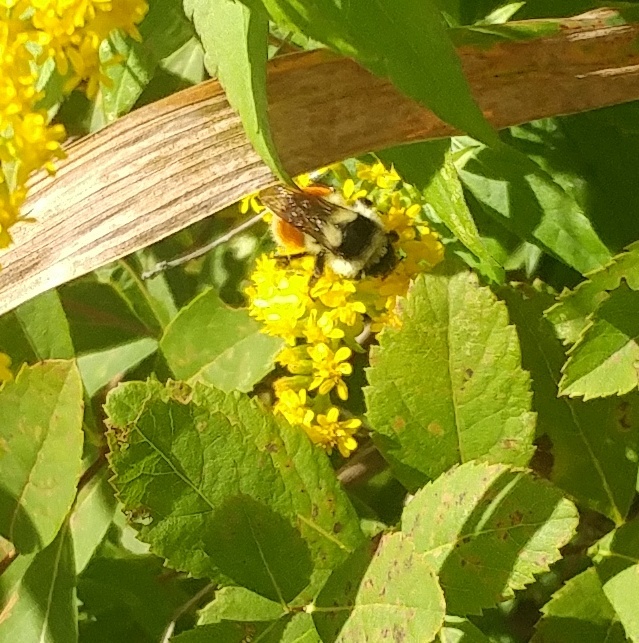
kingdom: Animalia
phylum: Arthropoda
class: Insecta
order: Hymenoptera
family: Apidae
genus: Bombus
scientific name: Bombus ternarius
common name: Tri-colored bumble bee
